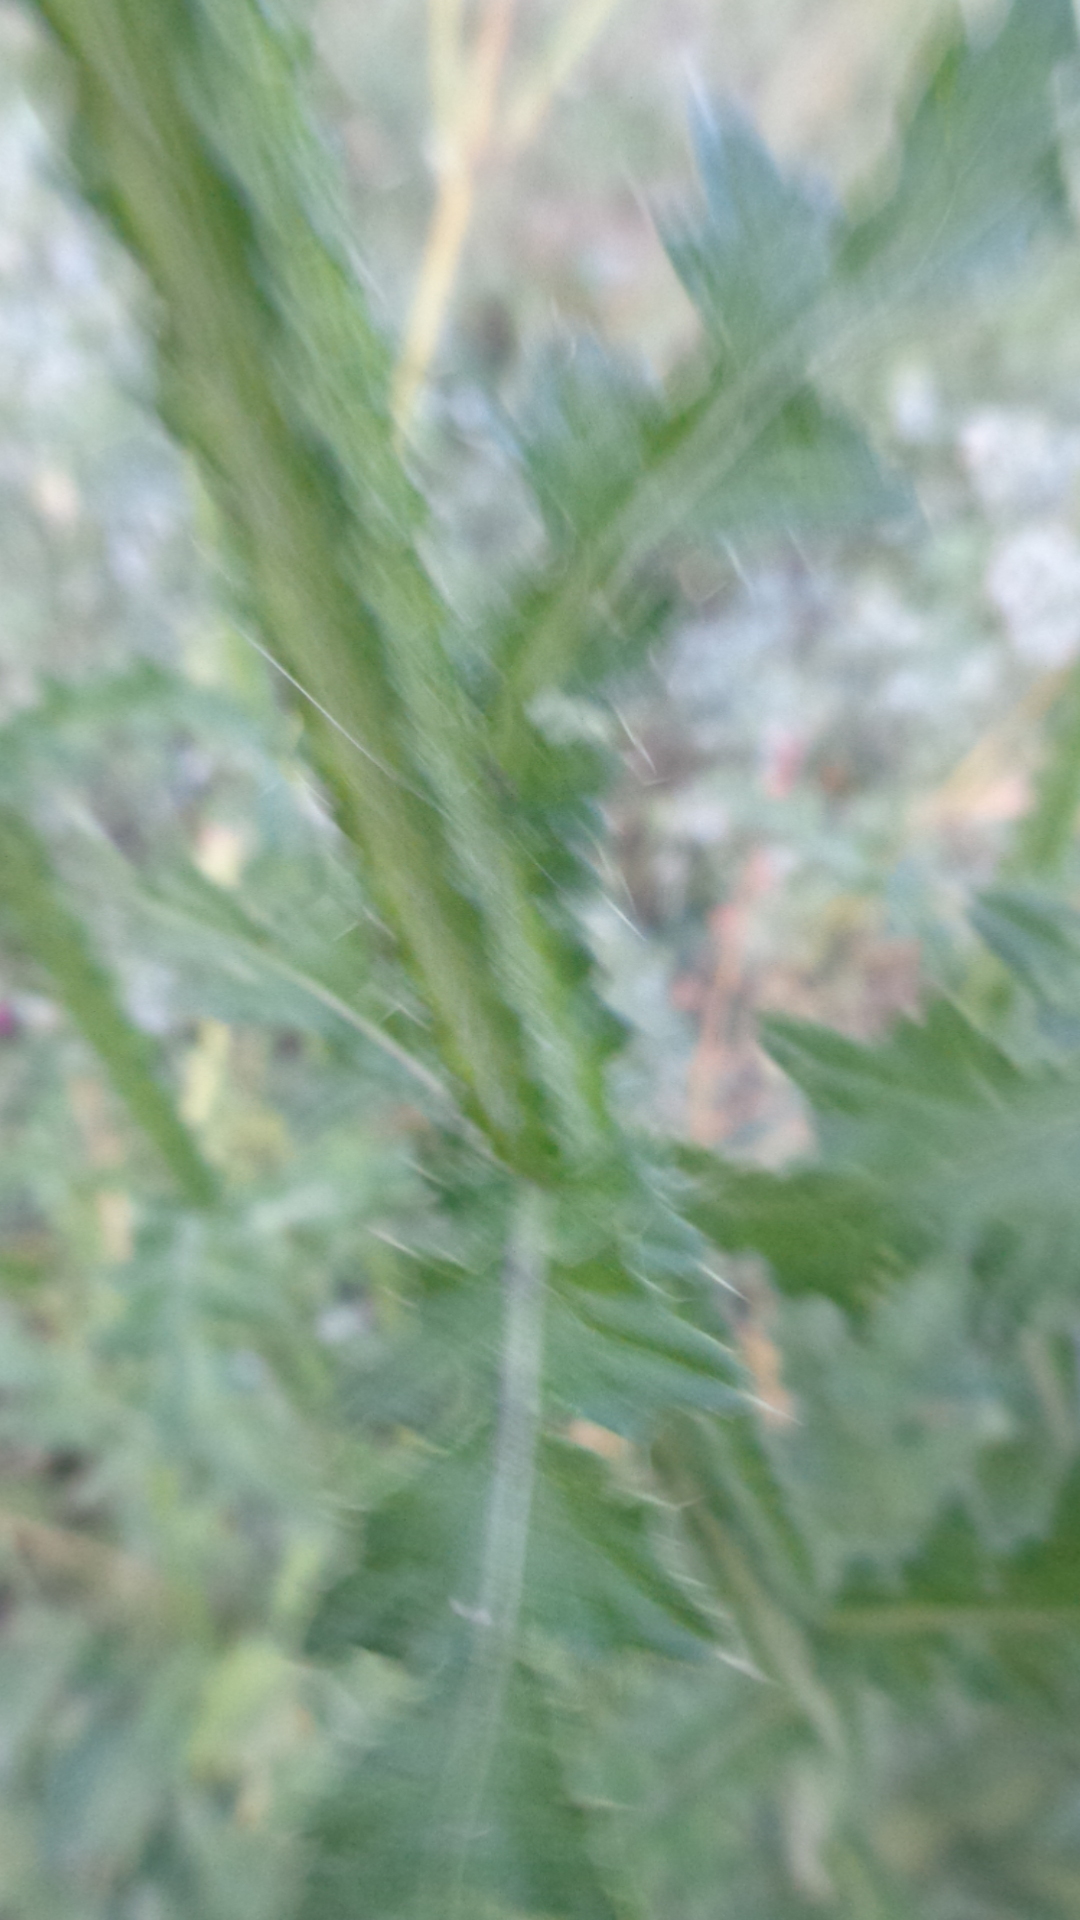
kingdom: Plantae
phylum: Tracheophyta
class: Magnoliopsida
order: Asterales
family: Asteraceae
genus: Carduus
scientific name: Carduus crispus
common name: Welted thistle
